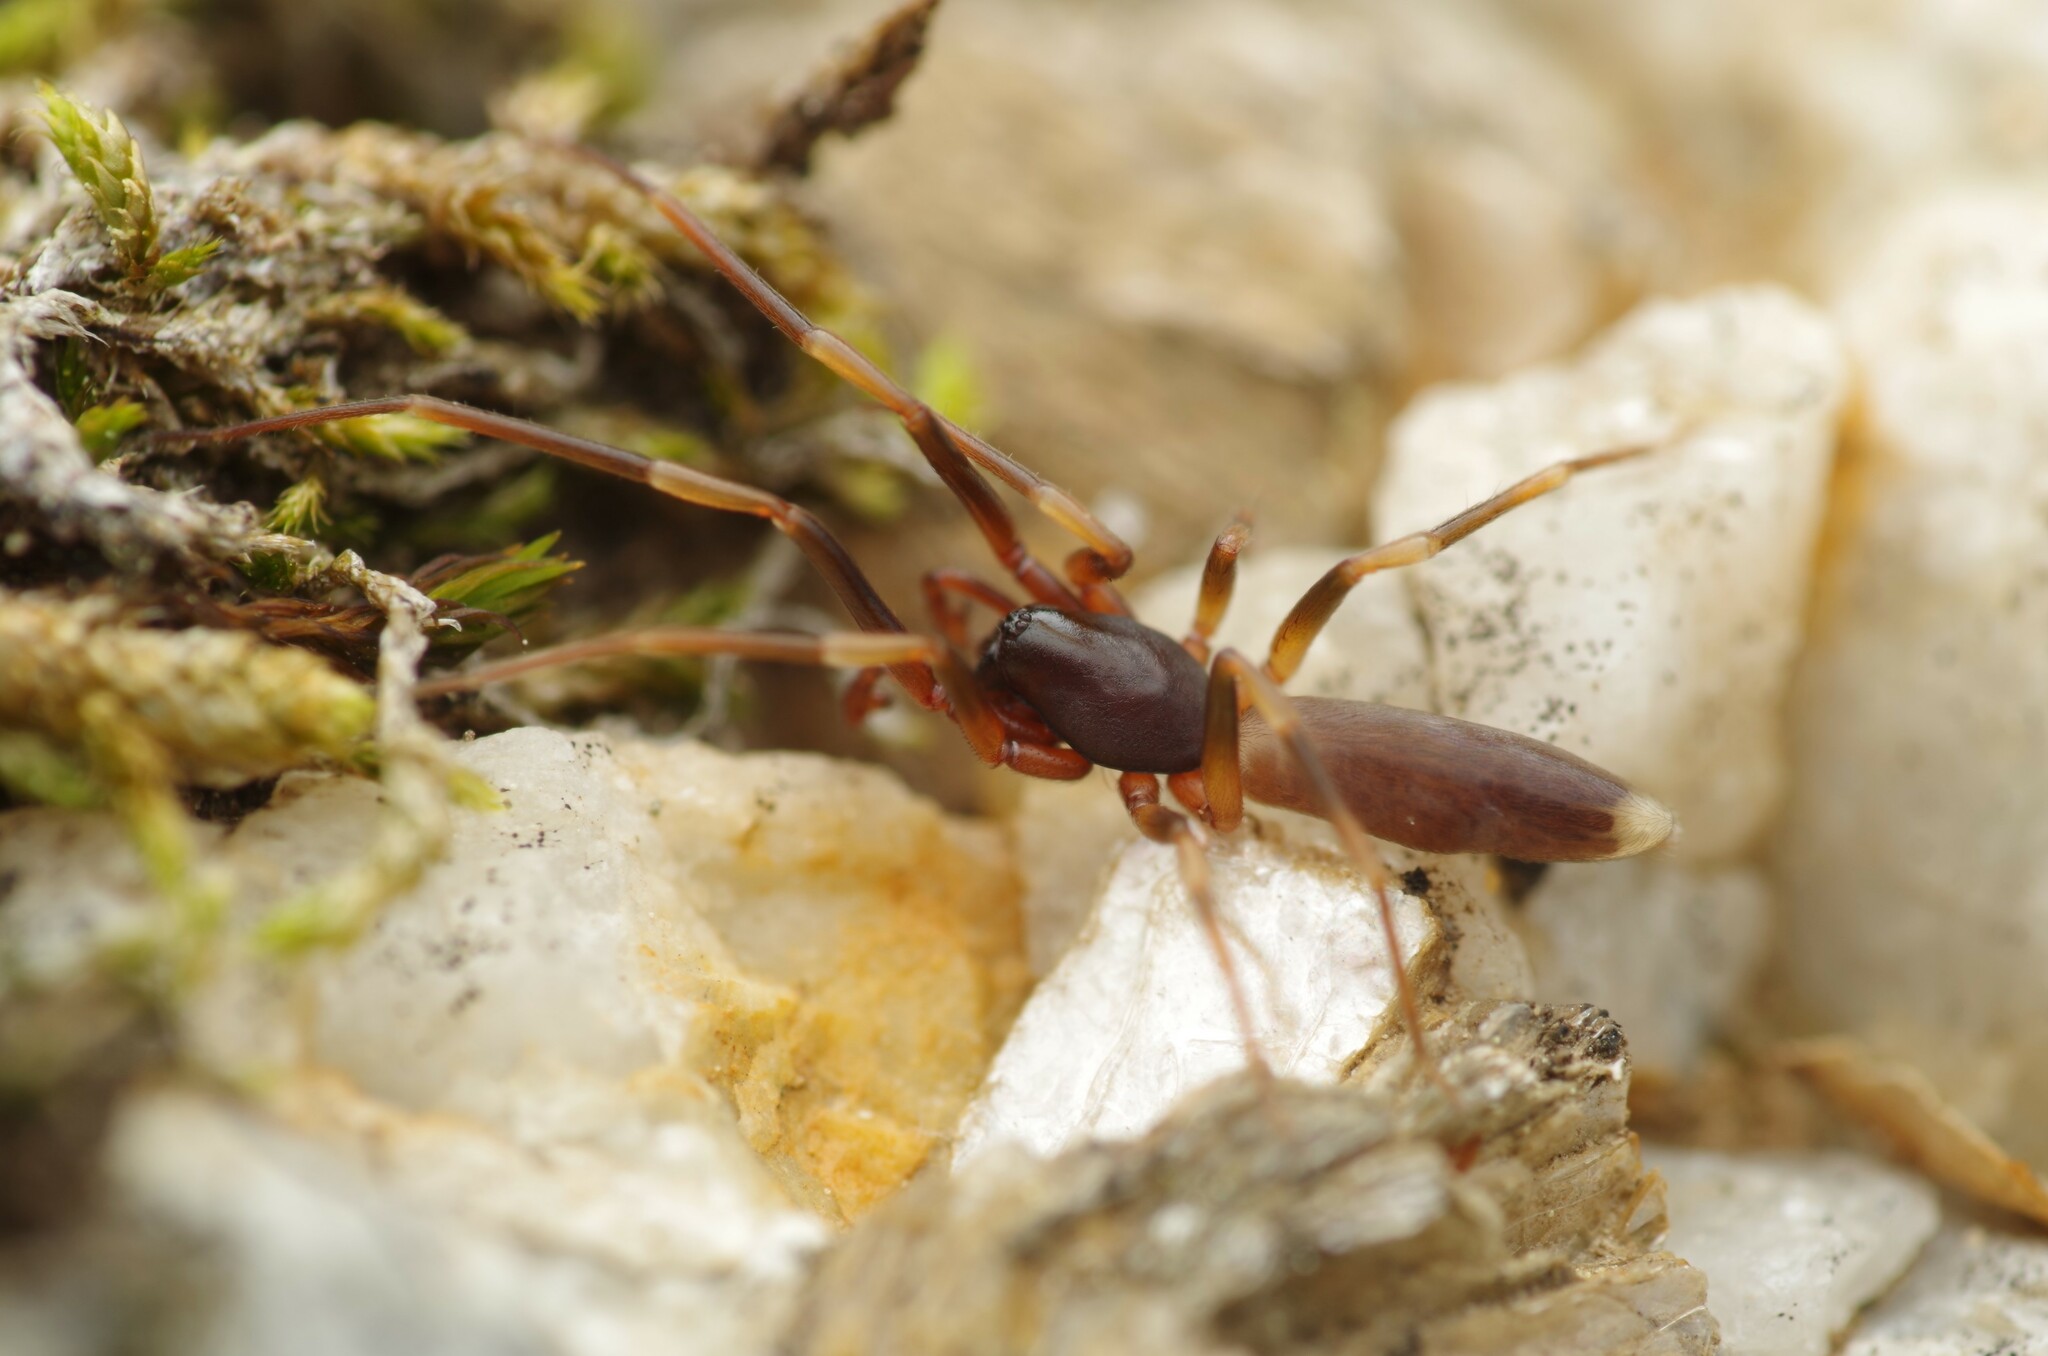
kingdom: Animalia
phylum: Arthropoda
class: Arachnida
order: Araneae
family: Dysderidae
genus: Harpactea
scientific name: Harpactea hombergi
